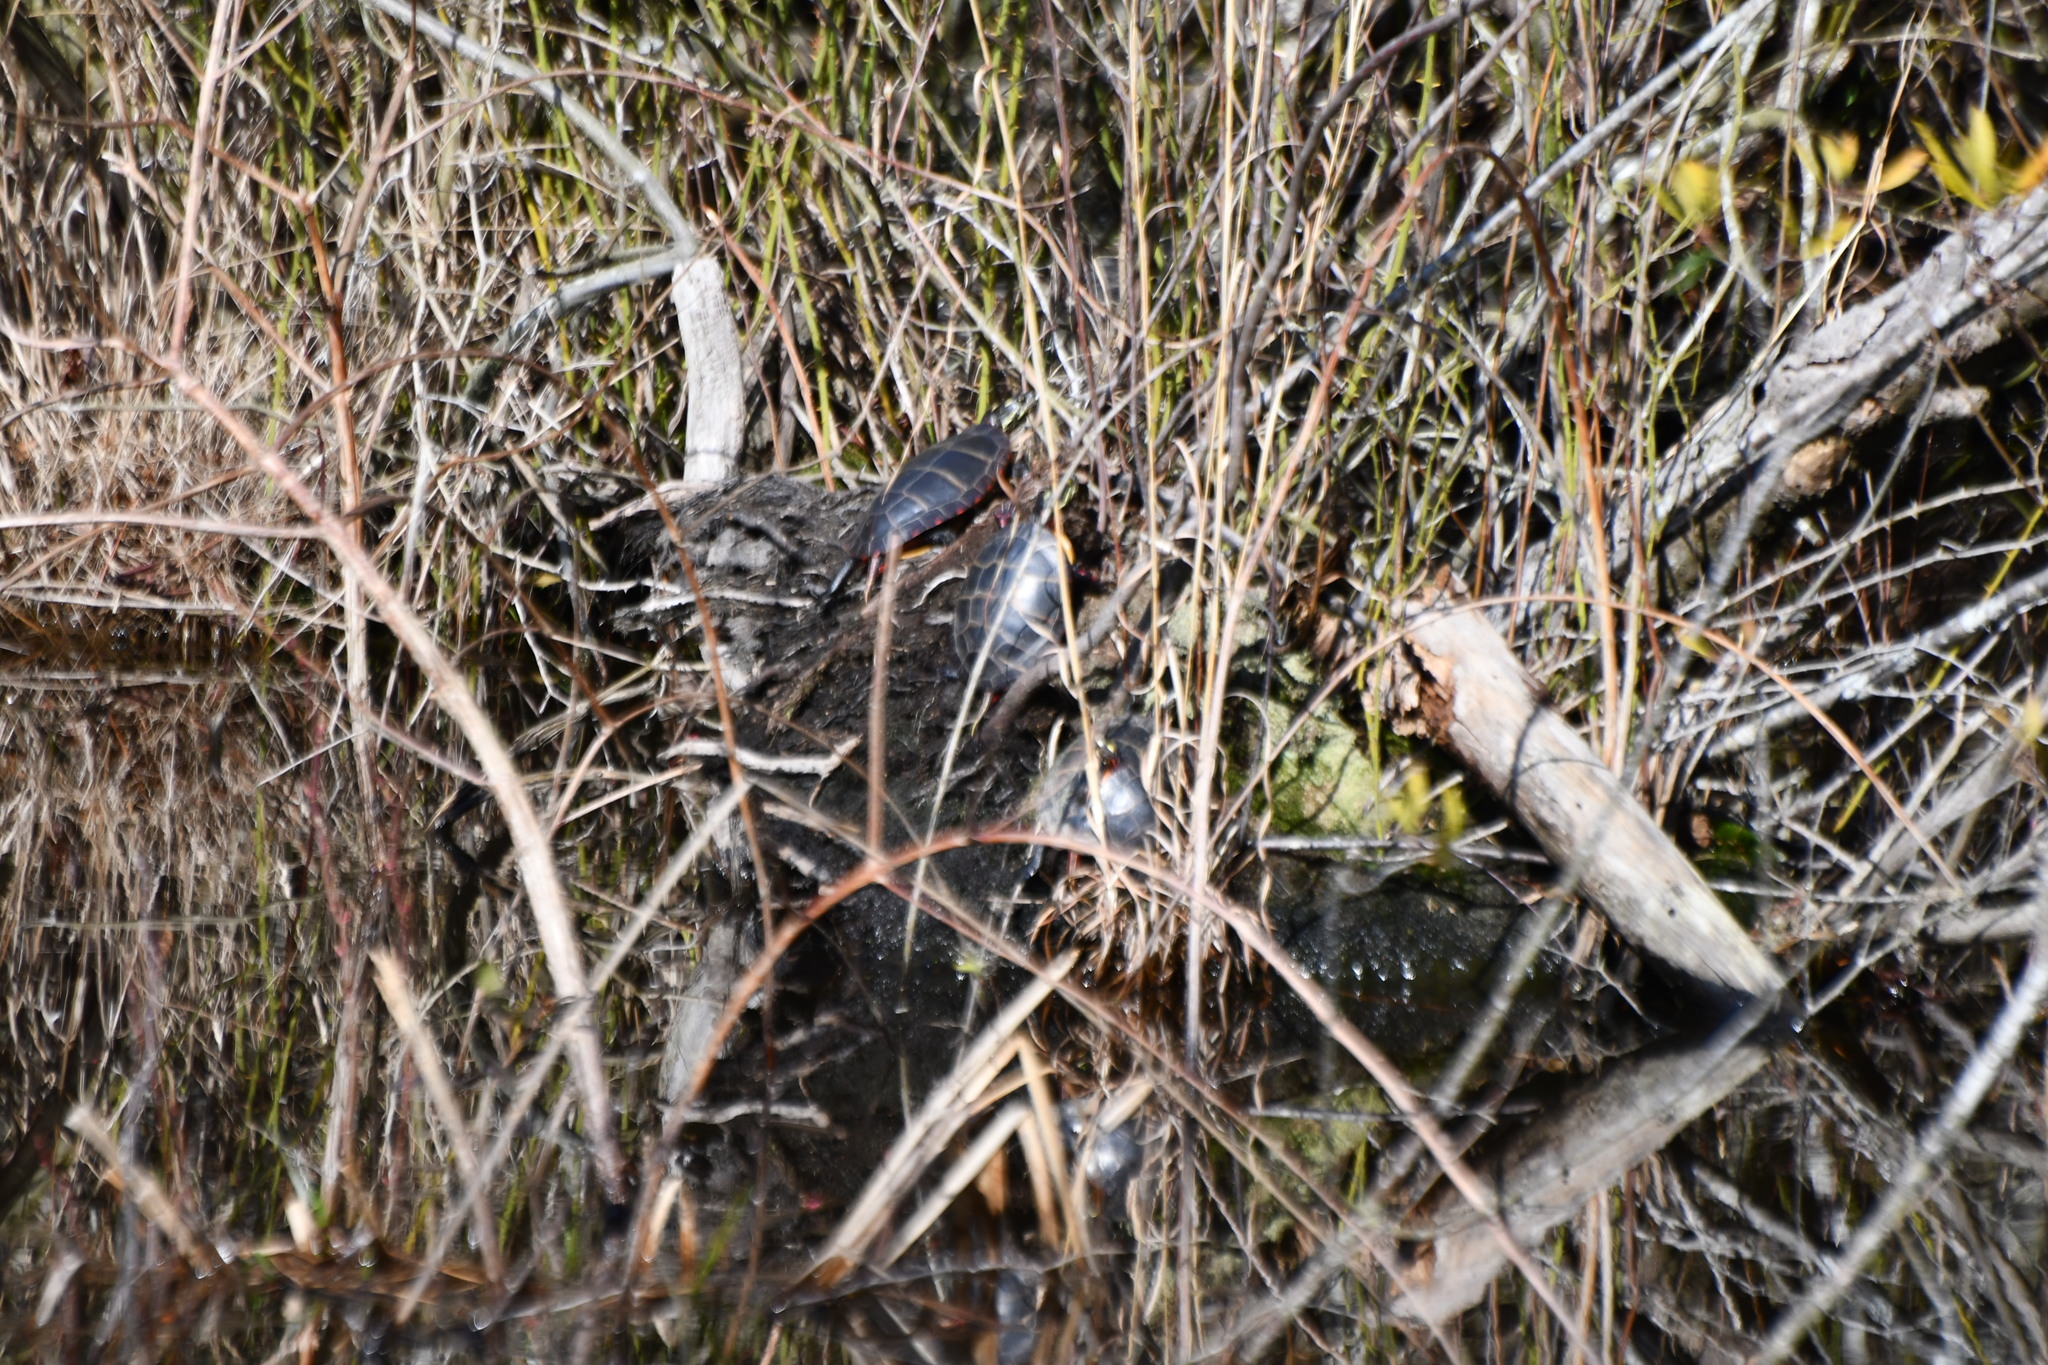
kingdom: Animalia
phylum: Chordata
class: Testudines
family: Emydidae
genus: Chrysemys
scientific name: Chrysemys picta
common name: Painted turtle
